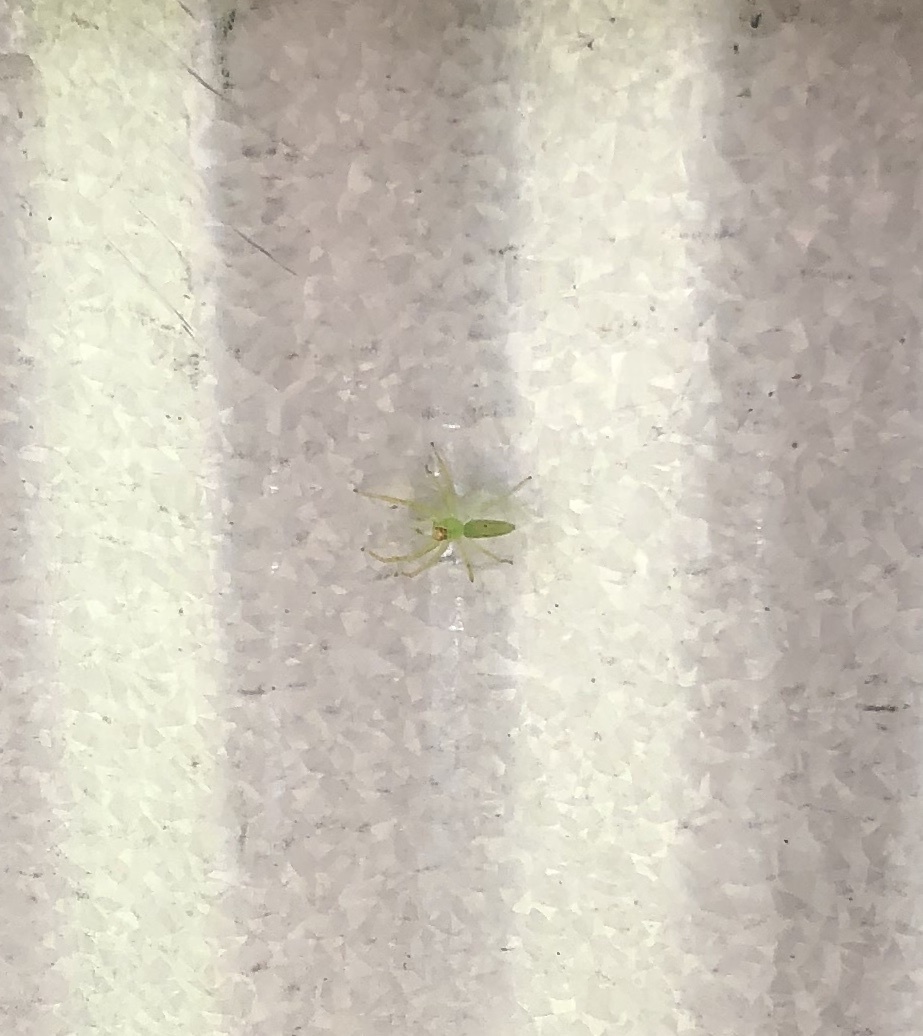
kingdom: Animalia
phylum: Arthropoda
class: Arachnida
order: Araneae
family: Salticidae
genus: Lyssomanes
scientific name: Lyssomanes viridis
